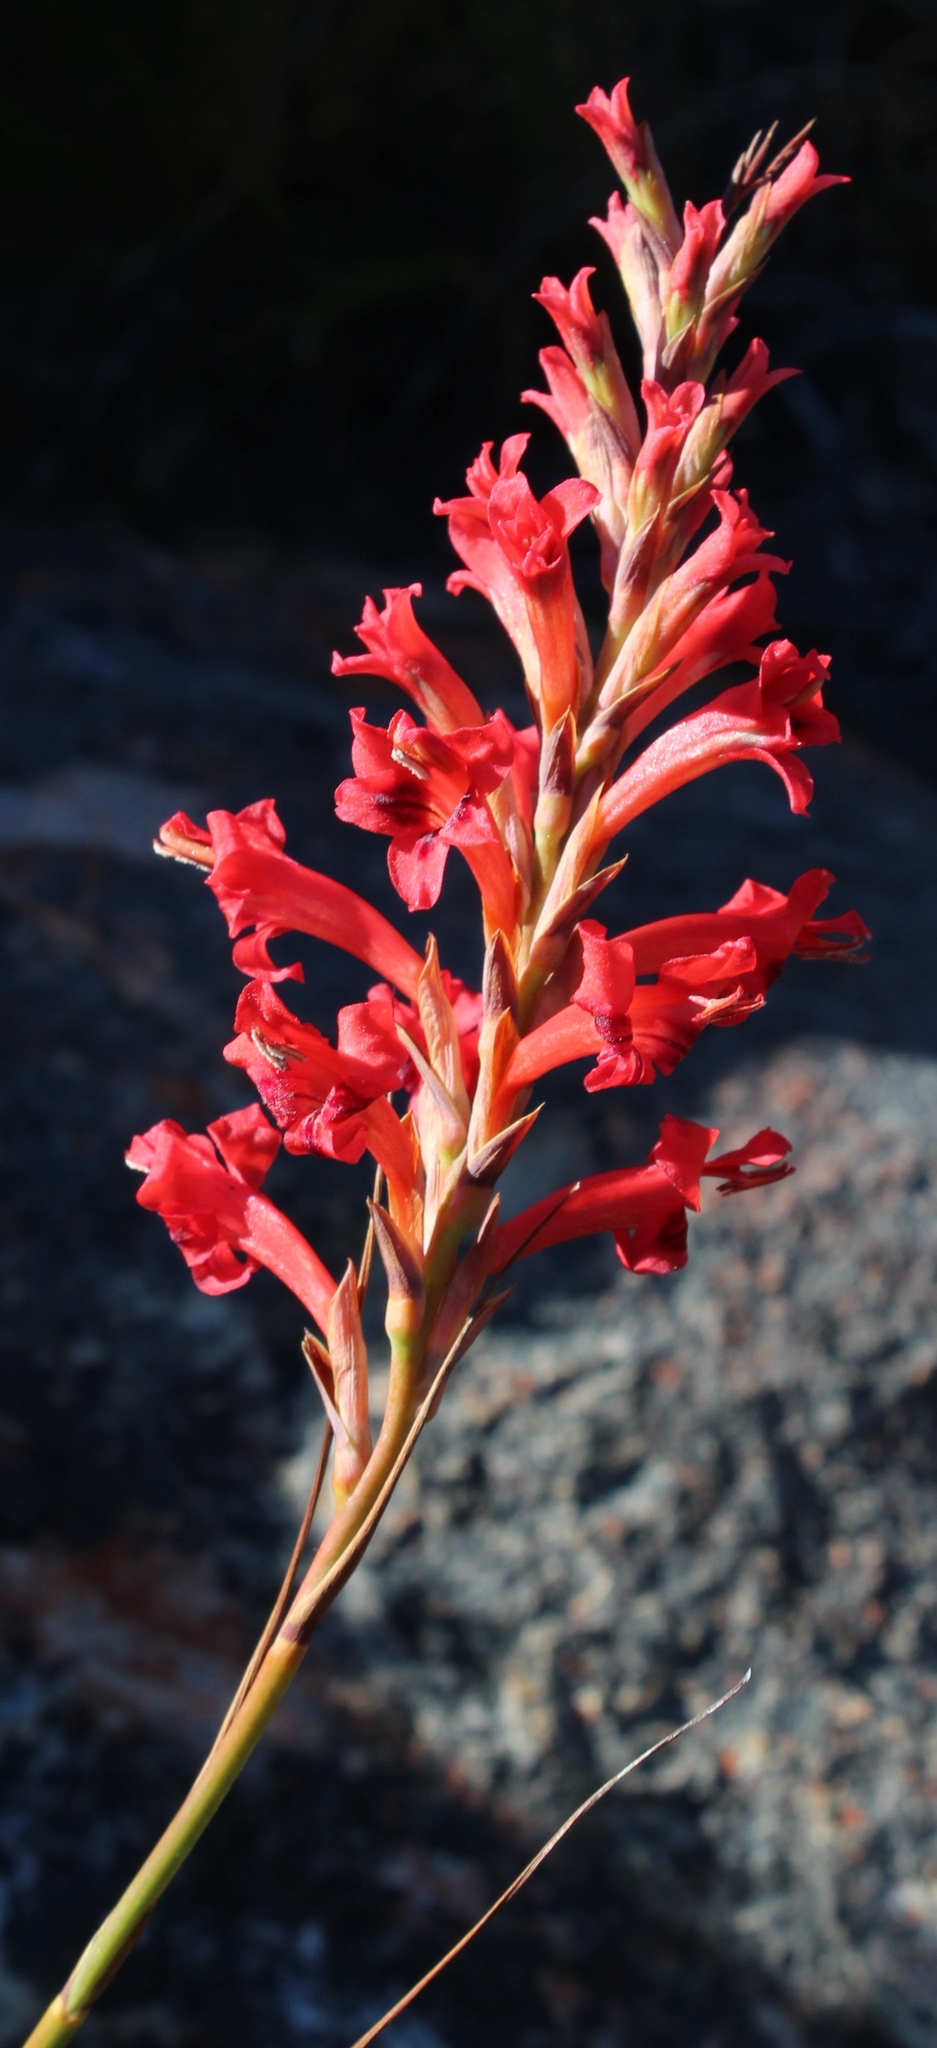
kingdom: Plantae
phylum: Tracheophyta
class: Liliopsida
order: Asparagales
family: Iridaceae
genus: Tritoniopsis
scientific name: Tritoniopsis triticea
